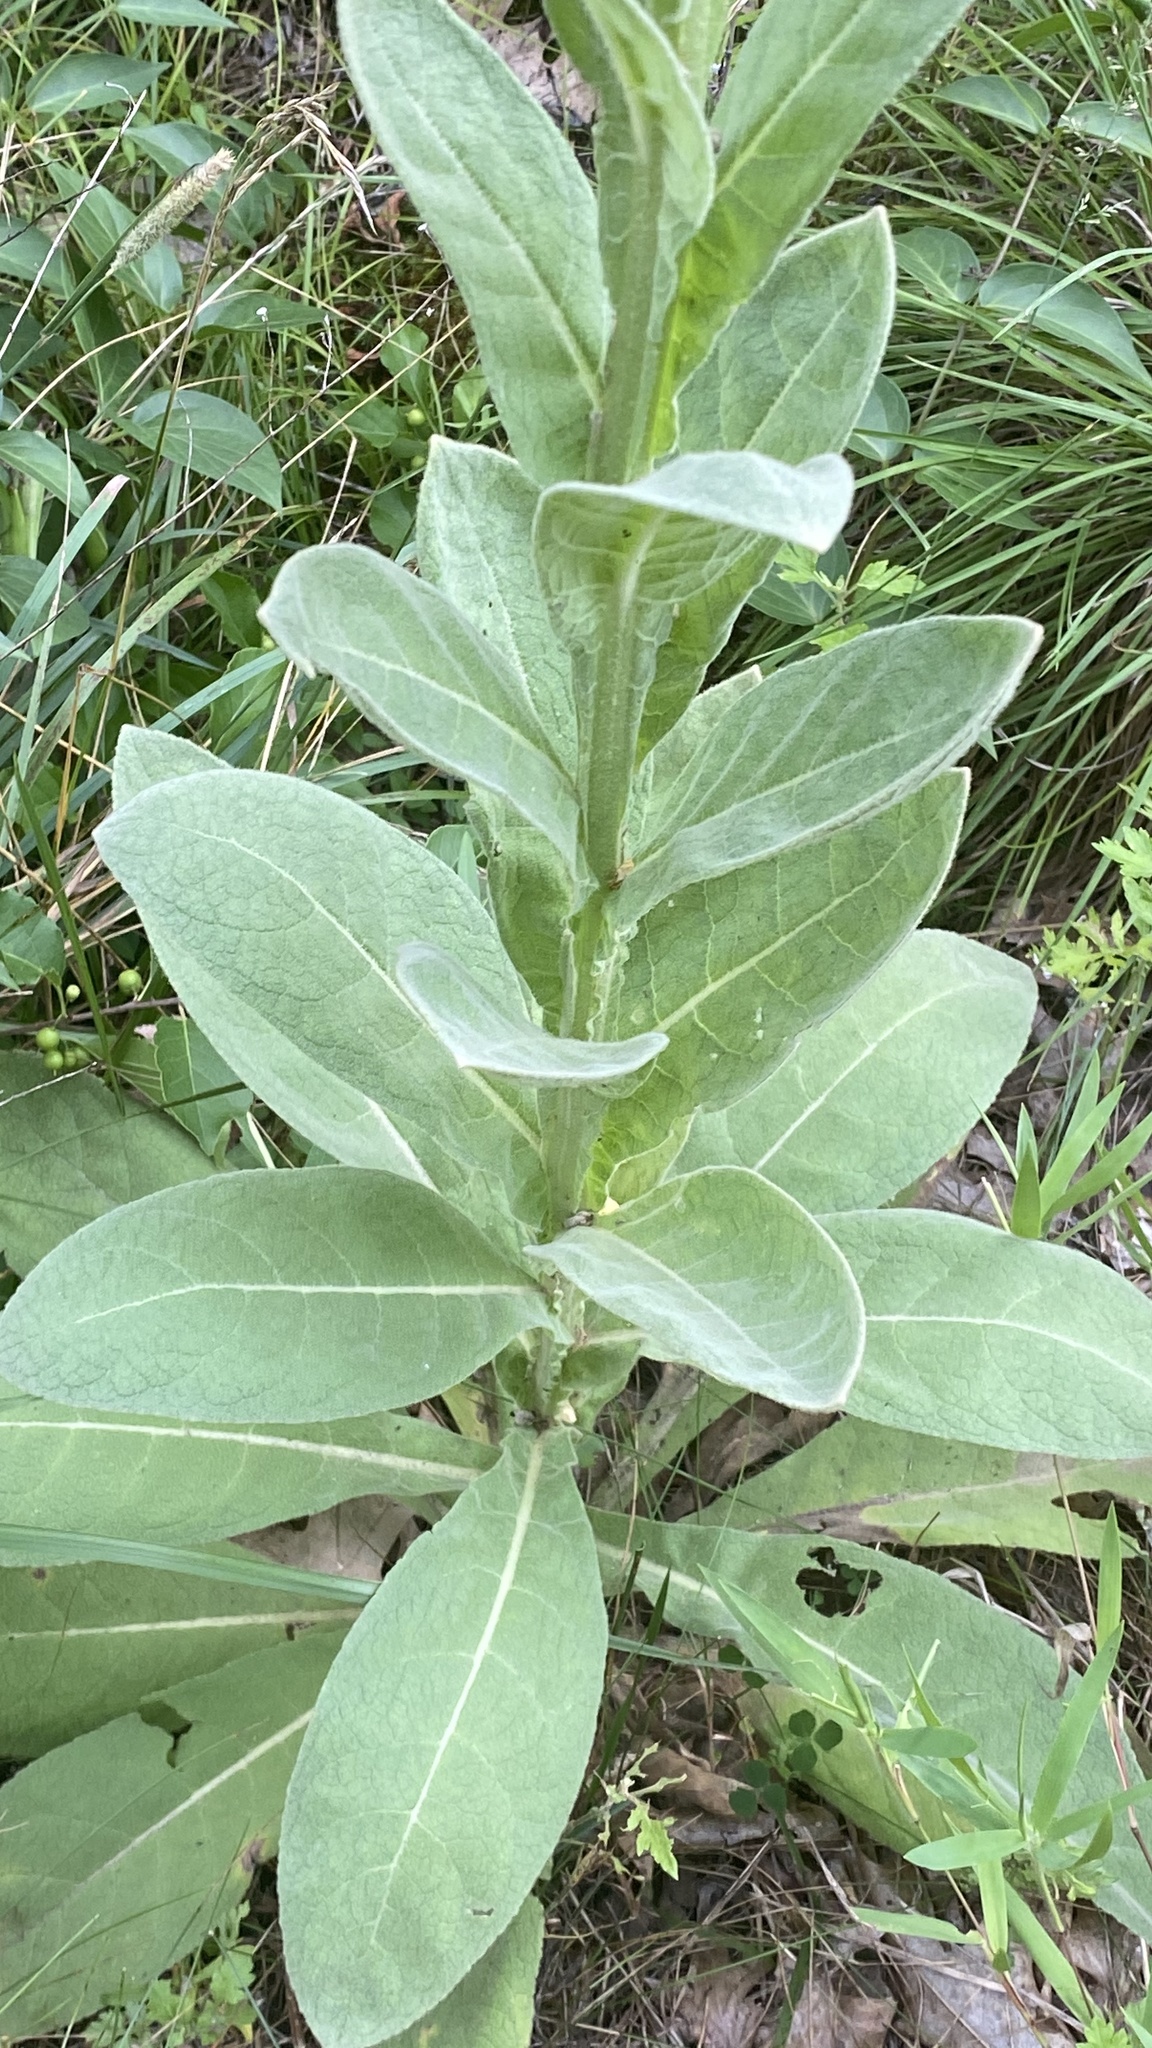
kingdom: Plantae
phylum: Tracheophyta
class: Magnoliopsida
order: Lamiales
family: Scrophulariaceae
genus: Verbascum
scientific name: Verbascum thapsus
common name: Common mullein
